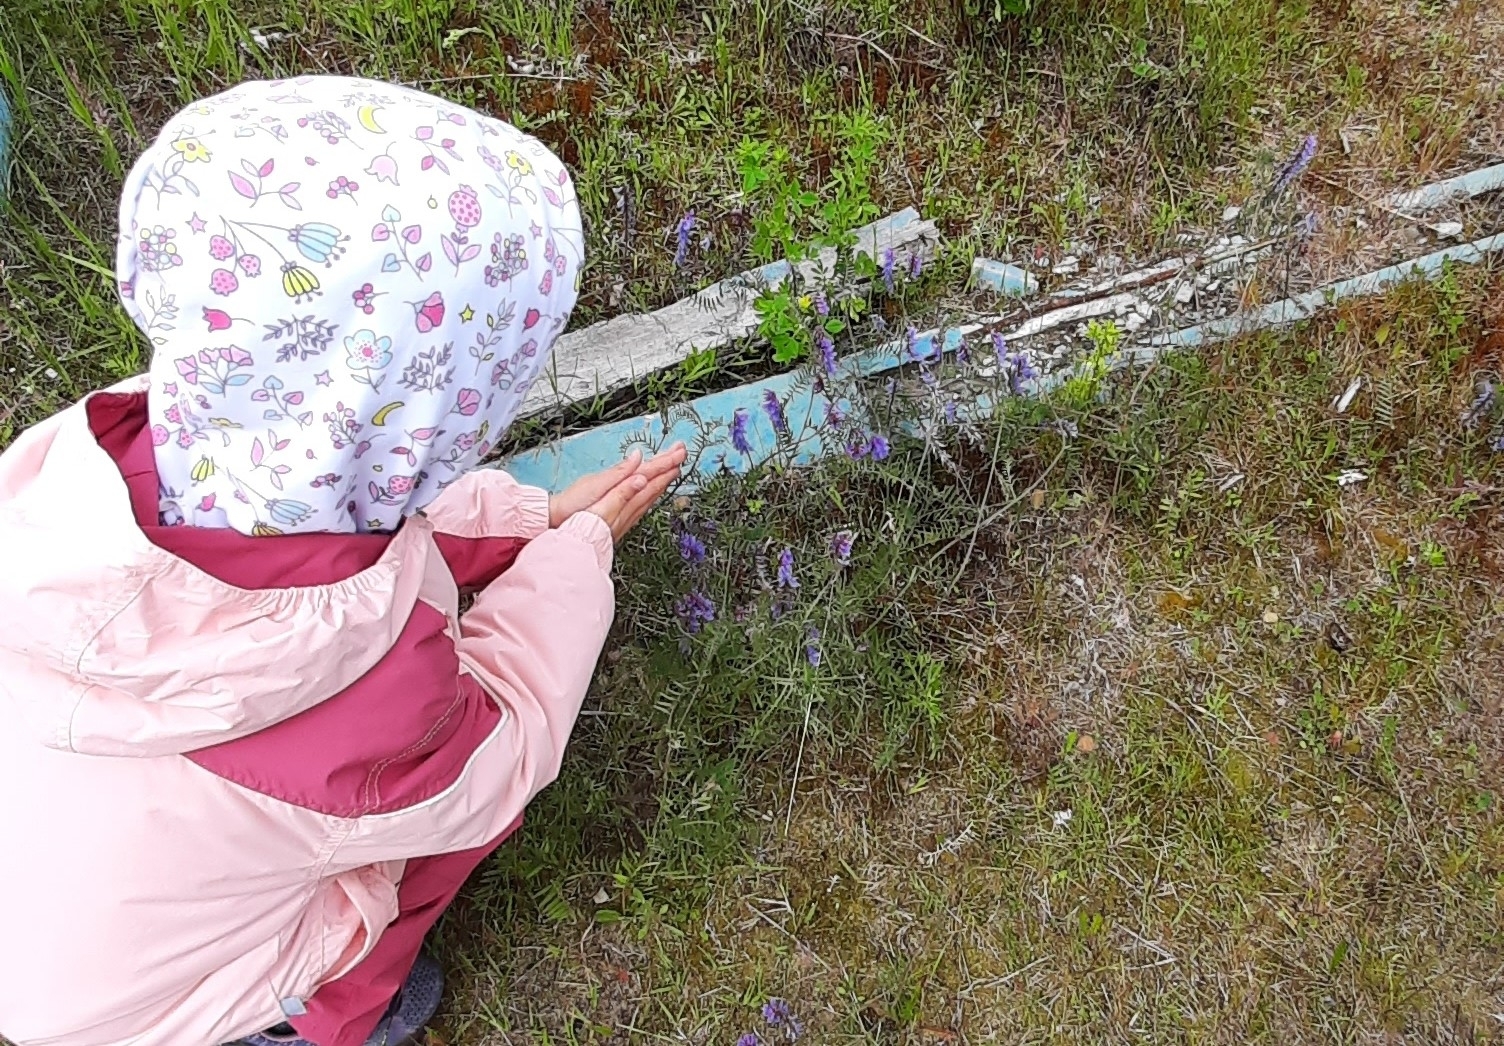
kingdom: Plantae
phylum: Tracheophyta
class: Magnoliopsida
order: Fabales
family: Fabaceae
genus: Vicia
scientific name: Vicia cracca
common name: Bird vetch
